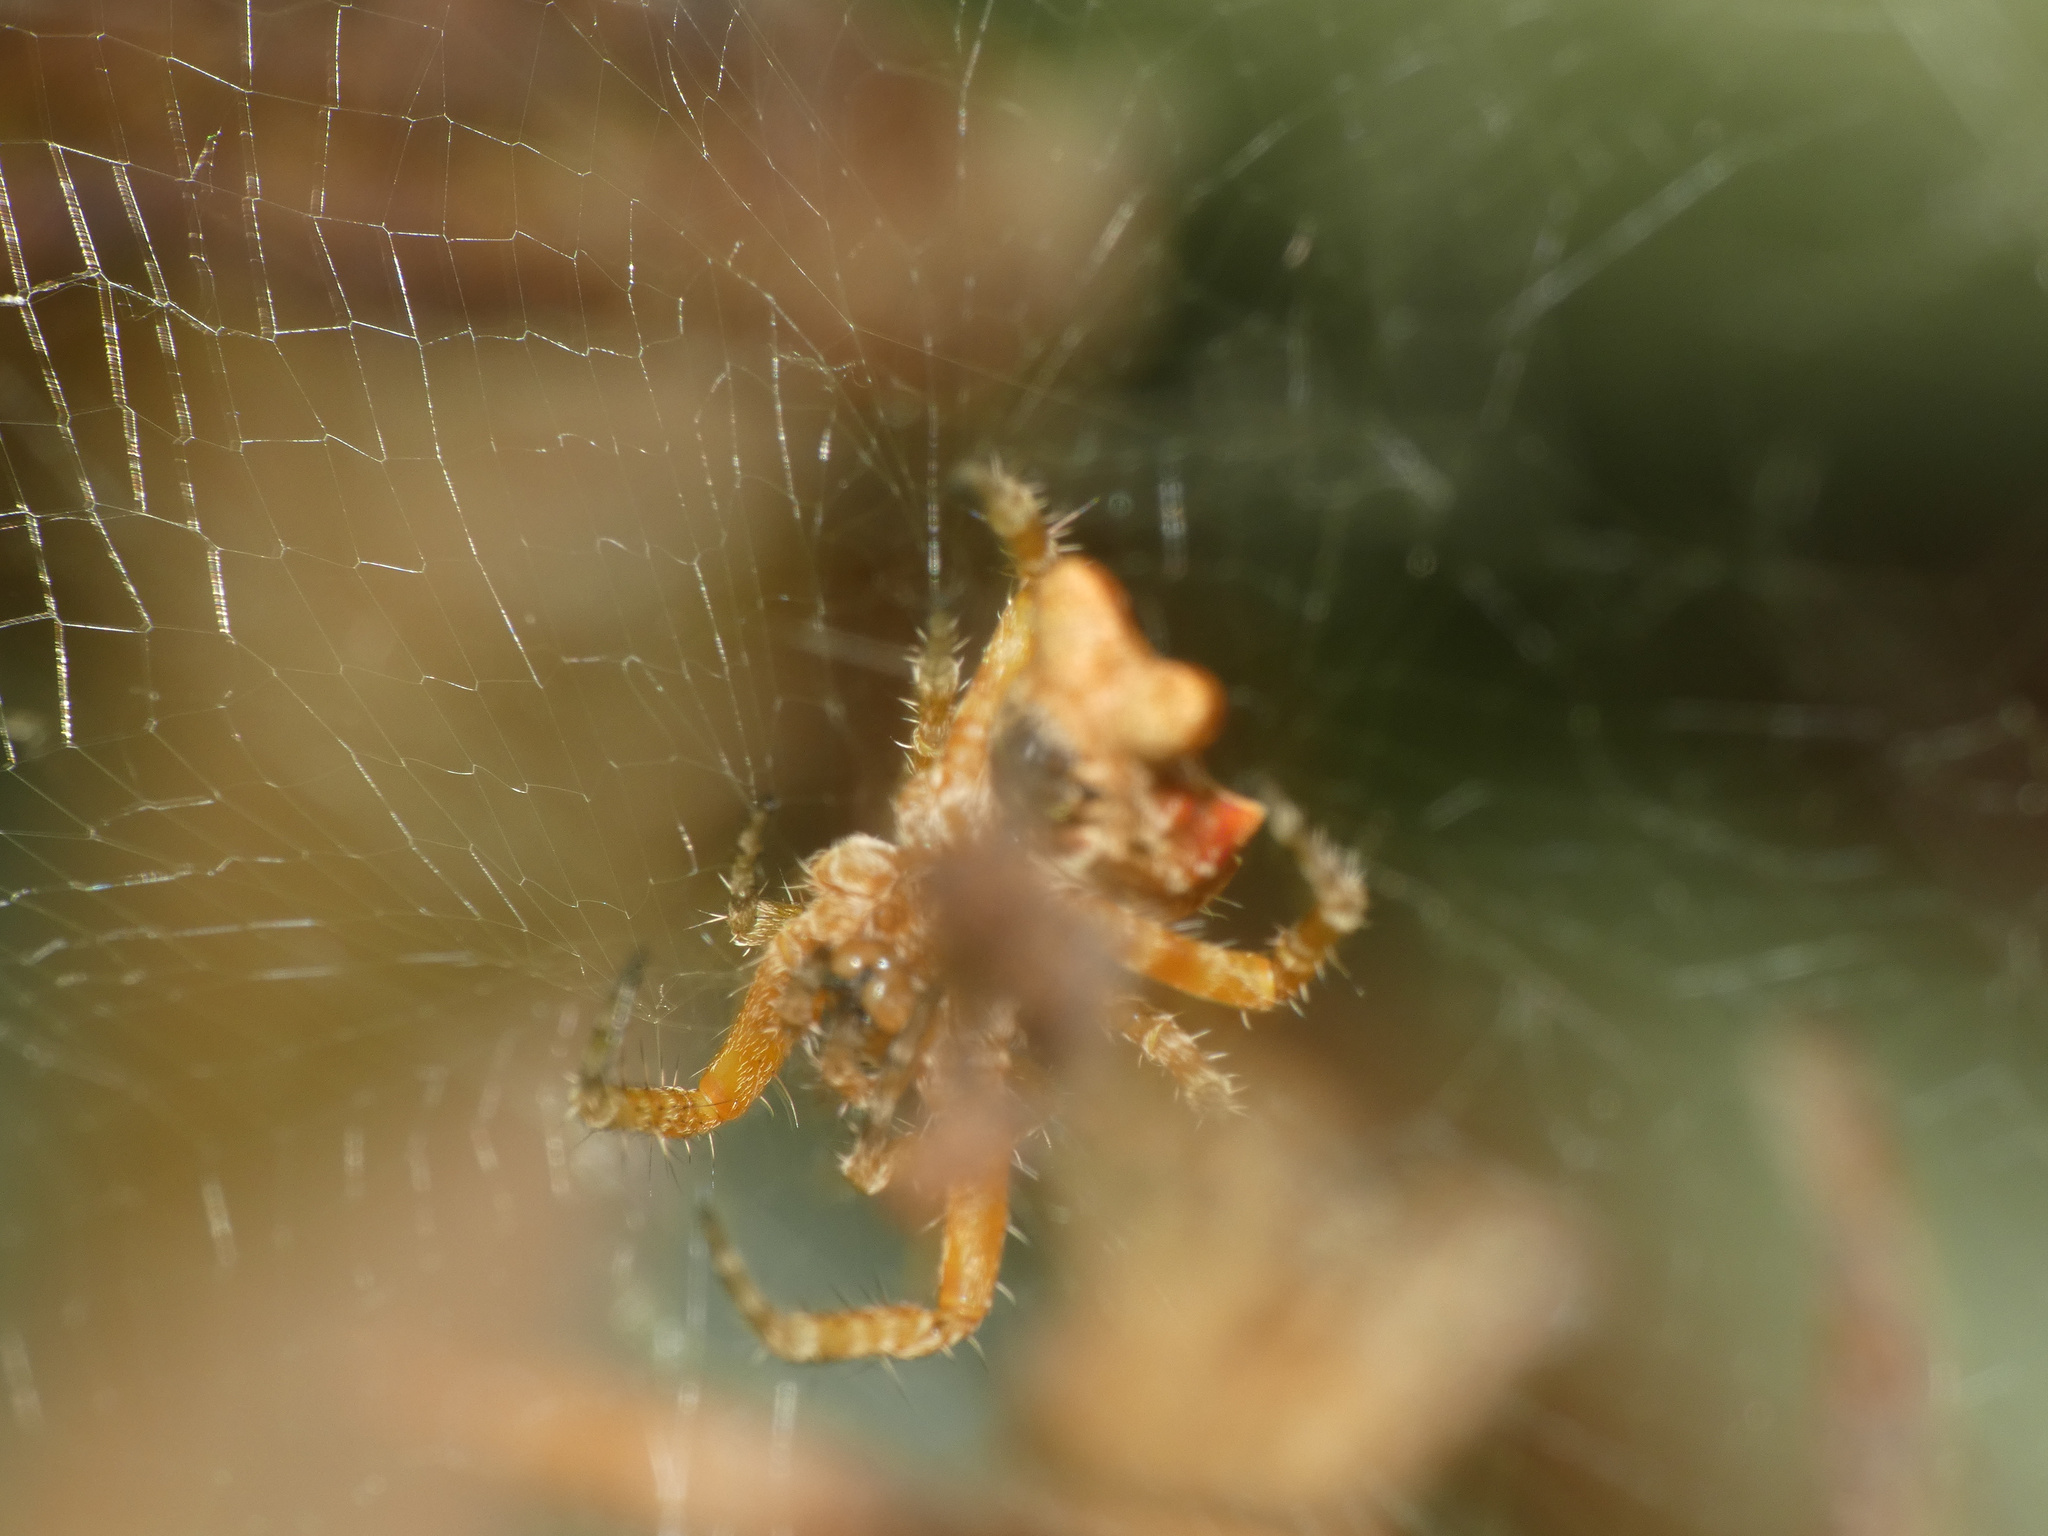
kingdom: Animalia
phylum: Arthropoda
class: Arachnida
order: Araneae
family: Araneidae
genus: Cyrtophora
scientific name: Cyrtophora citricola
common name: Orb weavers
